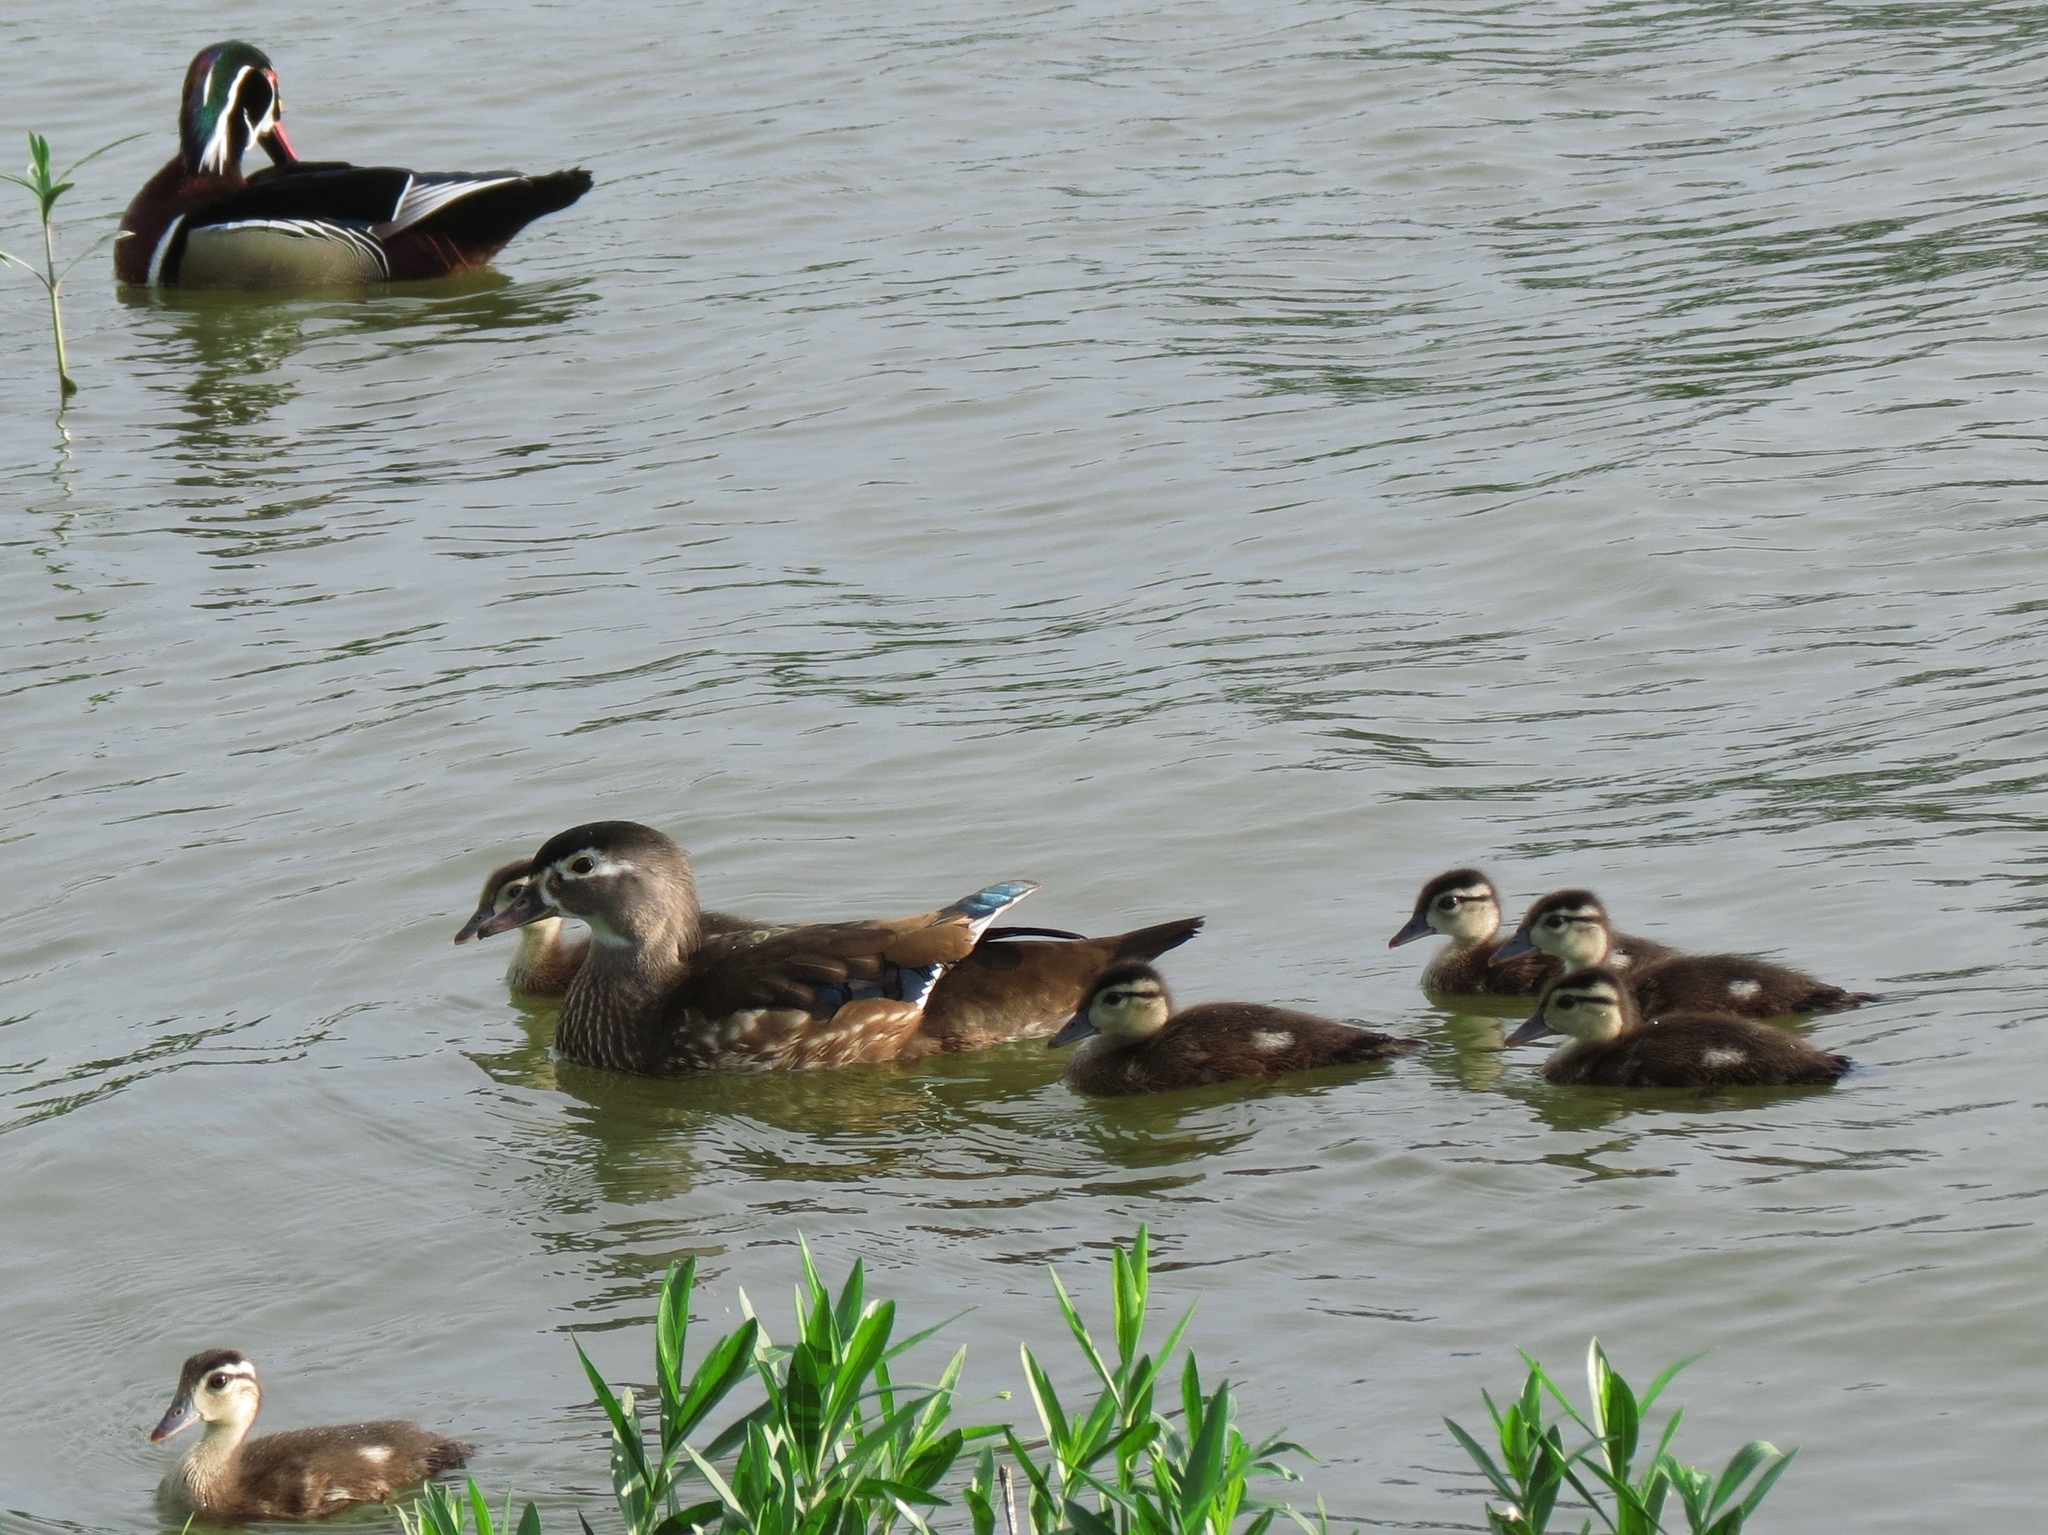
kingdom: Animalia
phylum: Chordata
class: Aves
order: Anseriformes
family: Anatidae
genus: Aix
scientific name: Aix sponsa
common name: Wood duck
